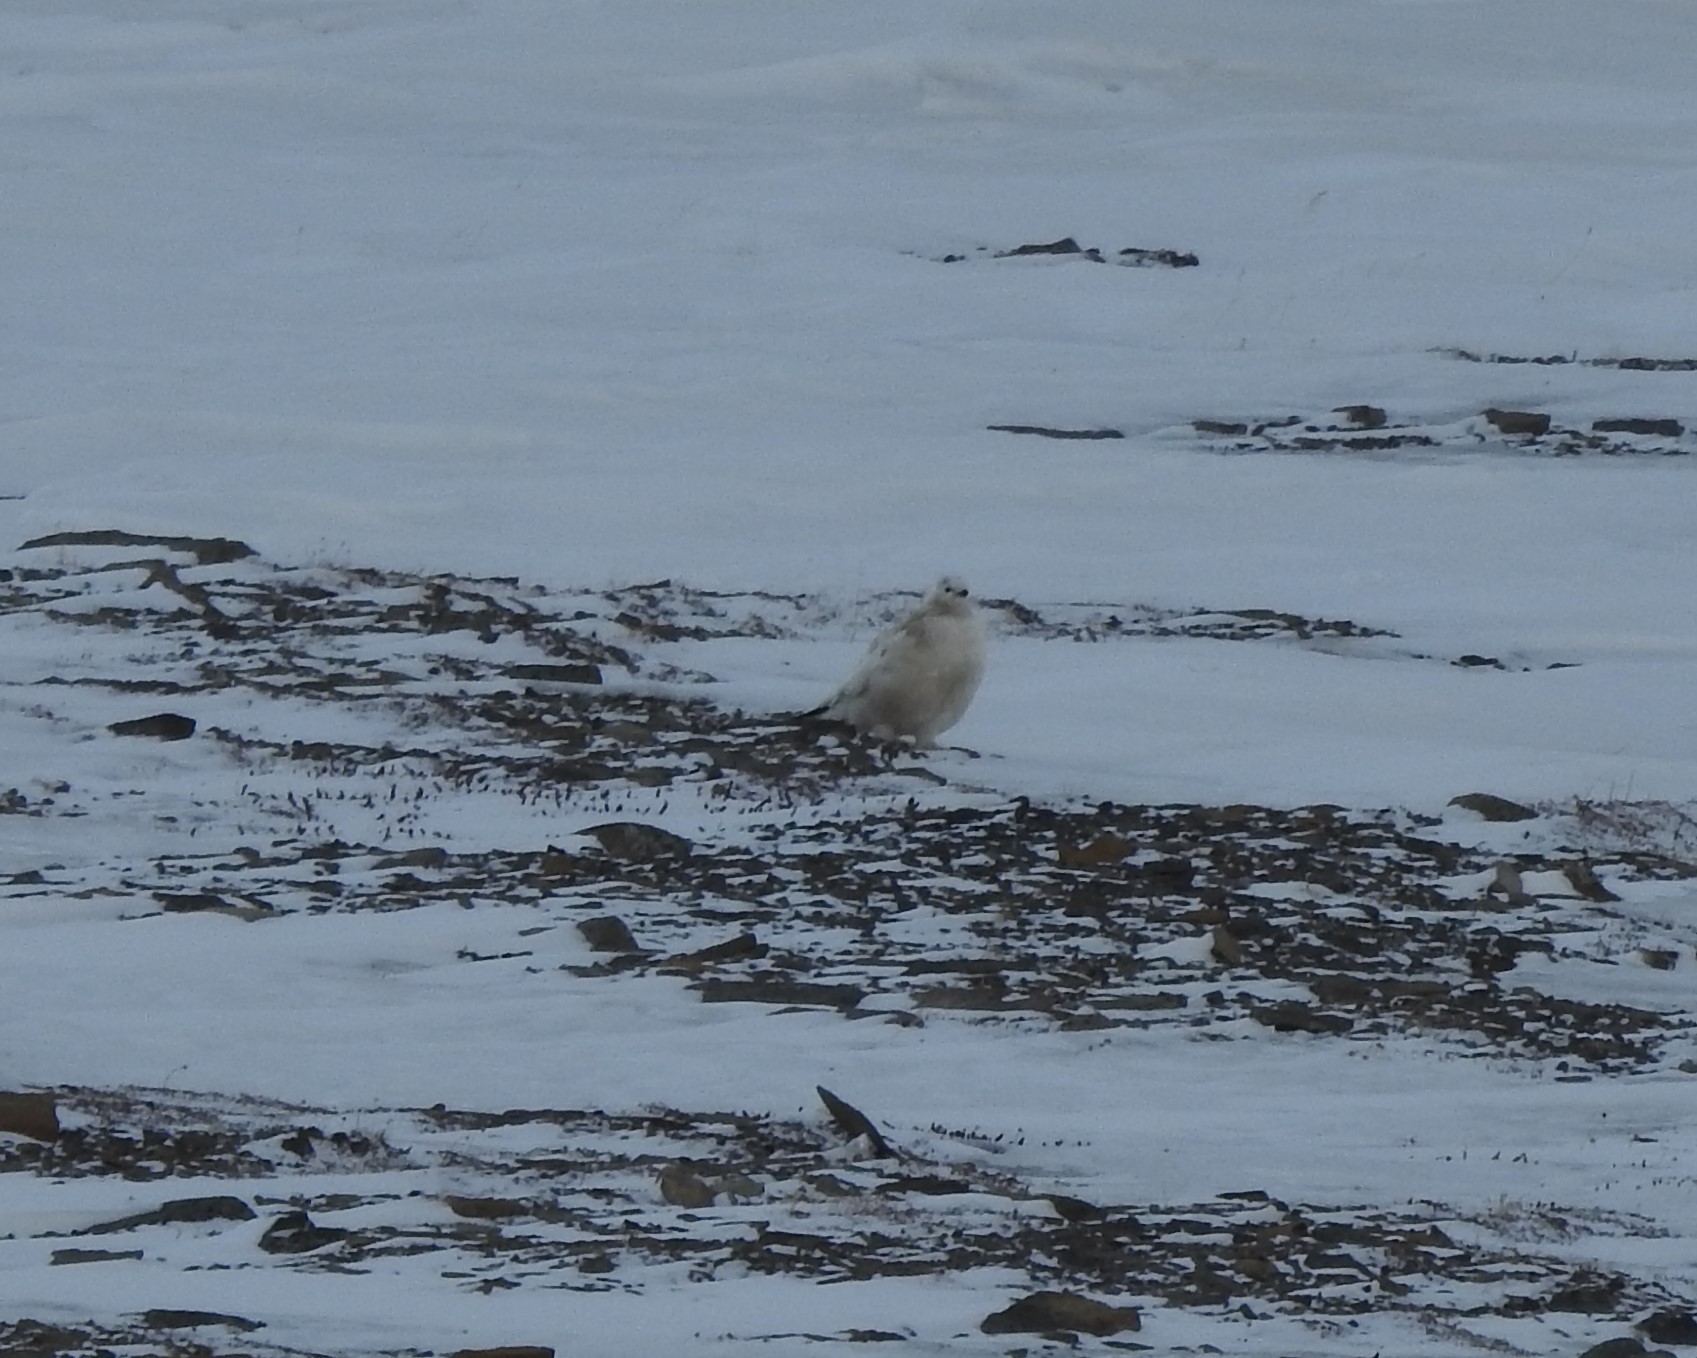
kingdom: Animalia
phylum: Chordata
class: Aves
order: Galliformes
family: Phasianidae
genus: Lagopus
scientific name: Lagopus muta
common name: Rock ptarmigan
